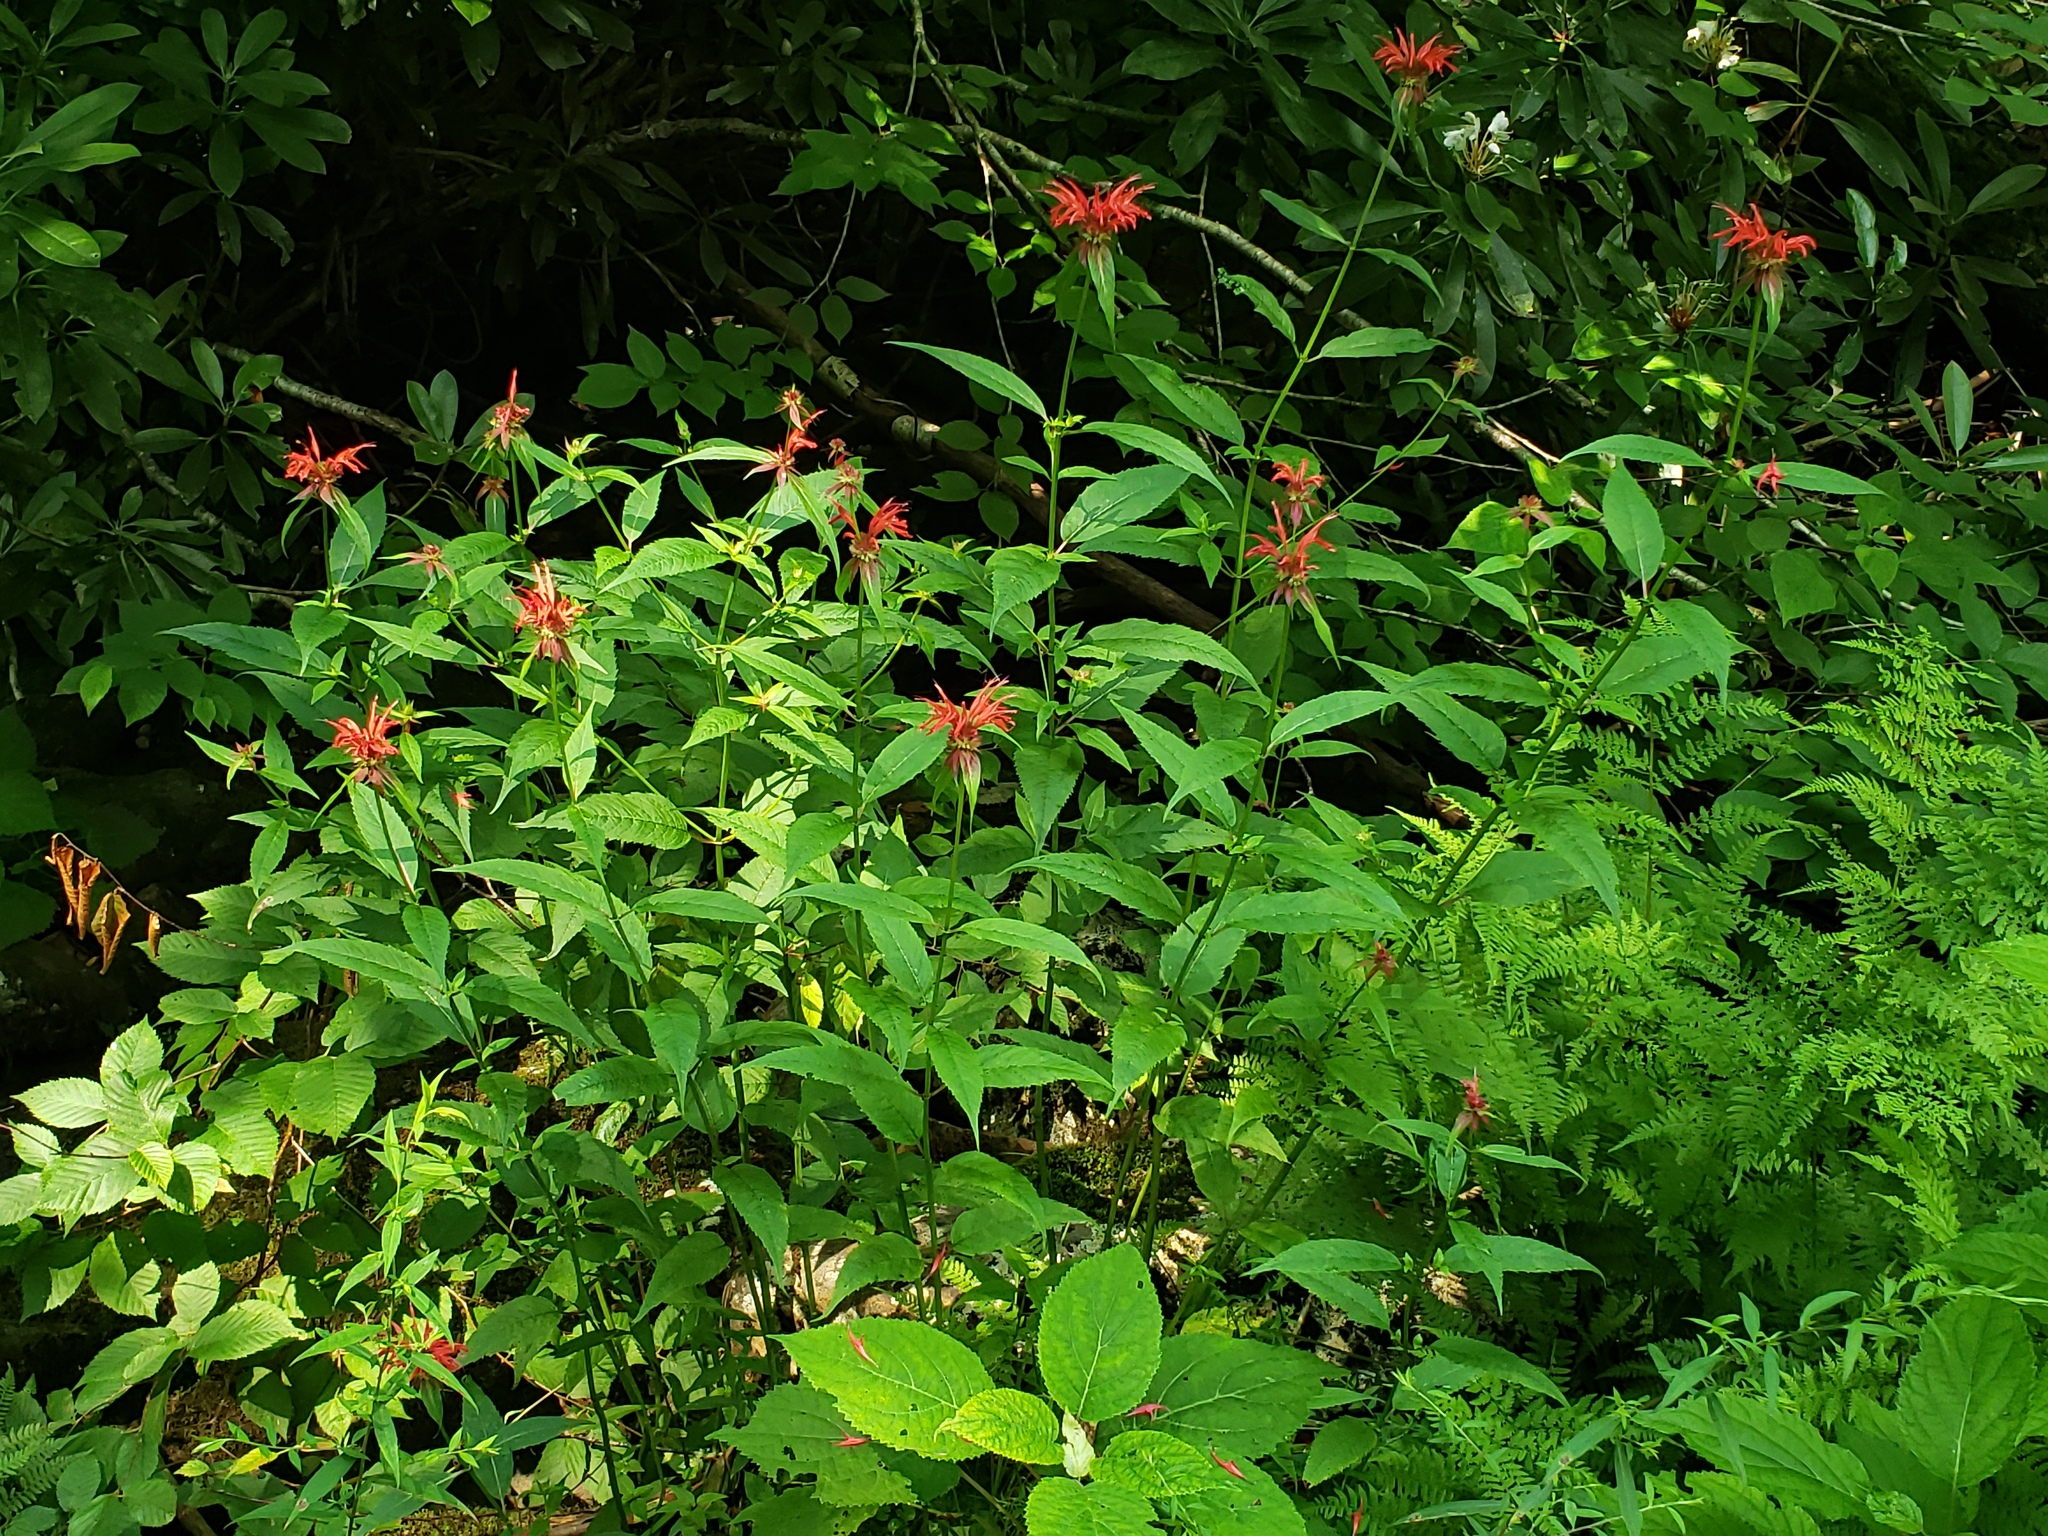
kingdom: Plantae
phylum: Tracheophyta
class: Magnoliopsida
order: Lamiales
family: Lamiaceae
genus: Monarda
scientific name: Monarda didyma
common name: Beebalm
